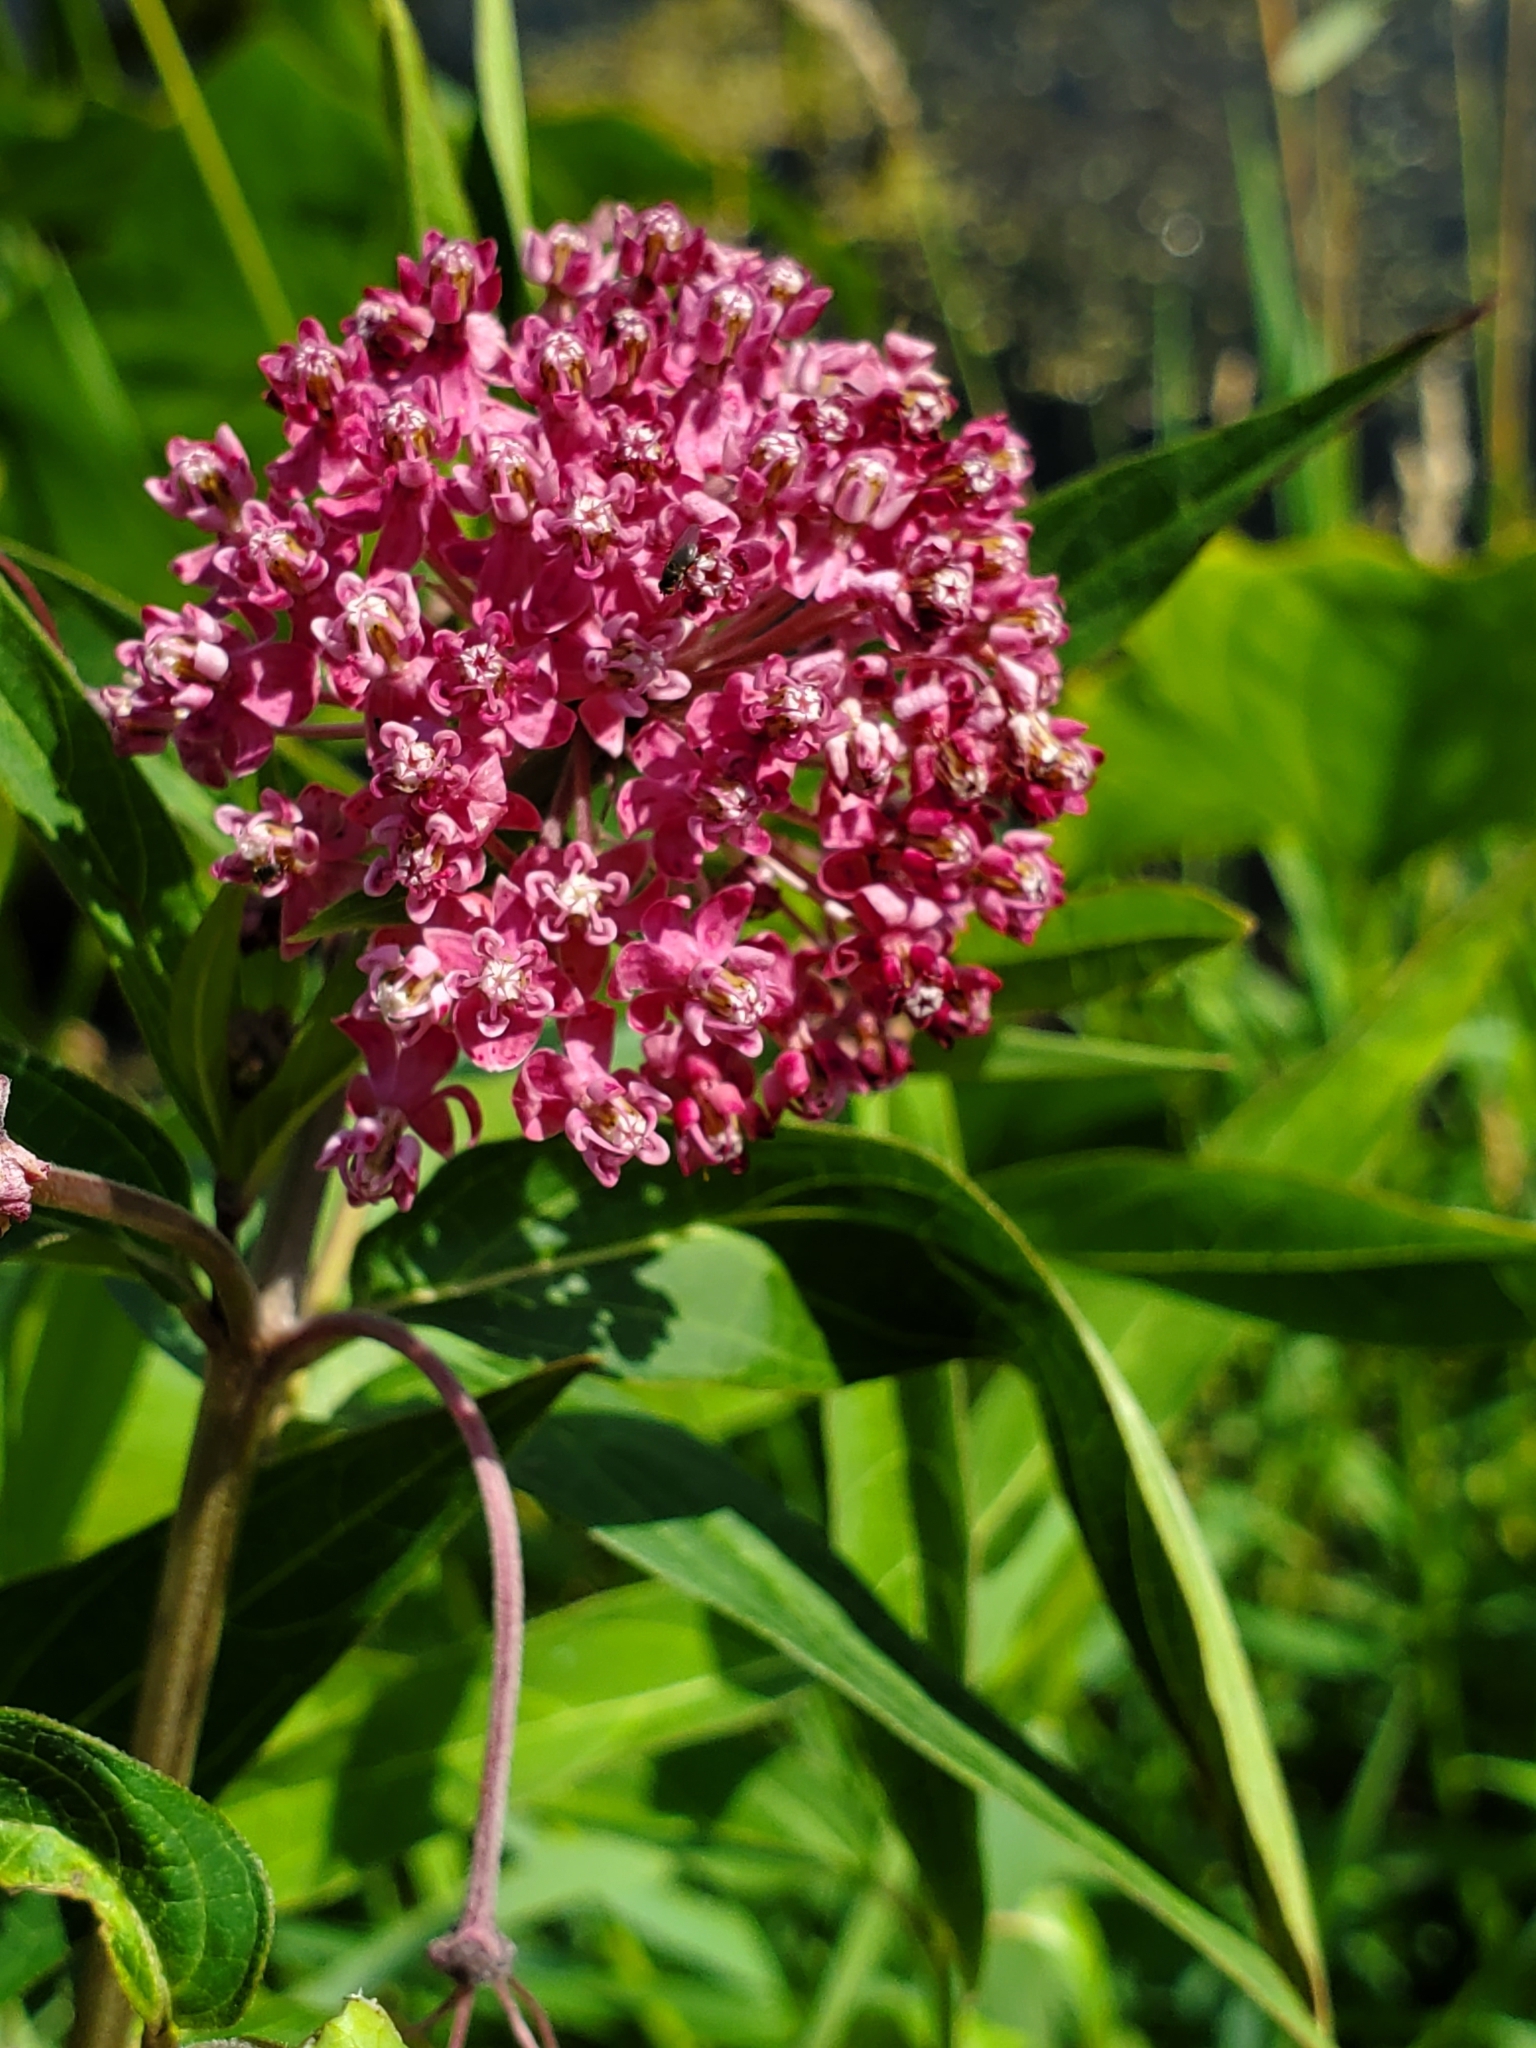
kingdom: Plantae
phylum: Tracheophyta
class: Magnoliopsida
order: Gentianales
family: Apocynaceae
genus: Asclepias
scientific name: Asclepias incarnata
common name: Swamp milkweed
